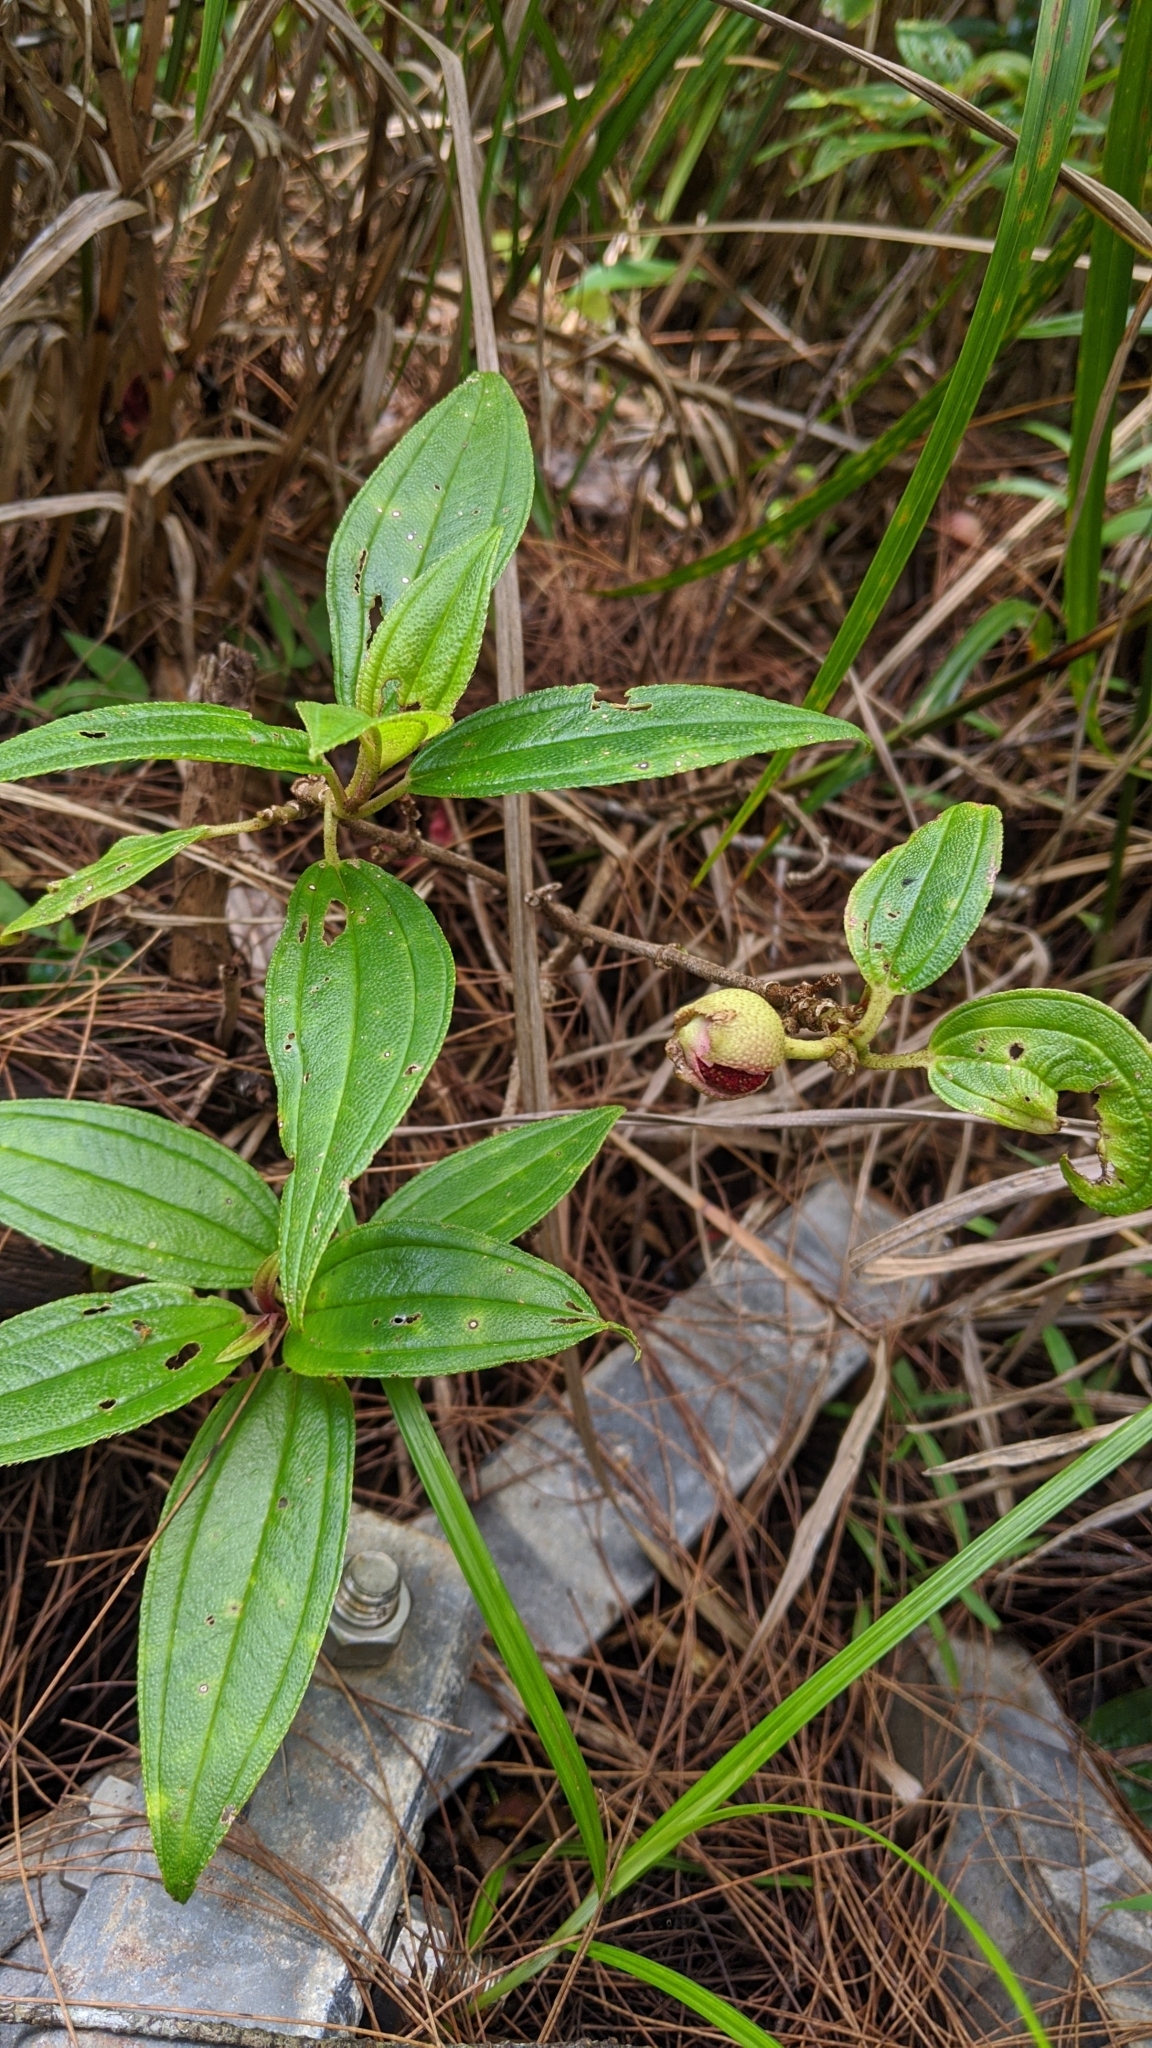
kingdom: Plantae
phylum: Tracheophyta
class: Magnoliopsida
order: Myrtales
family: Melastomataceae
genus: Melastoma
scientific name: Melastoma malabathricum
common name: Indian-rhododendron
